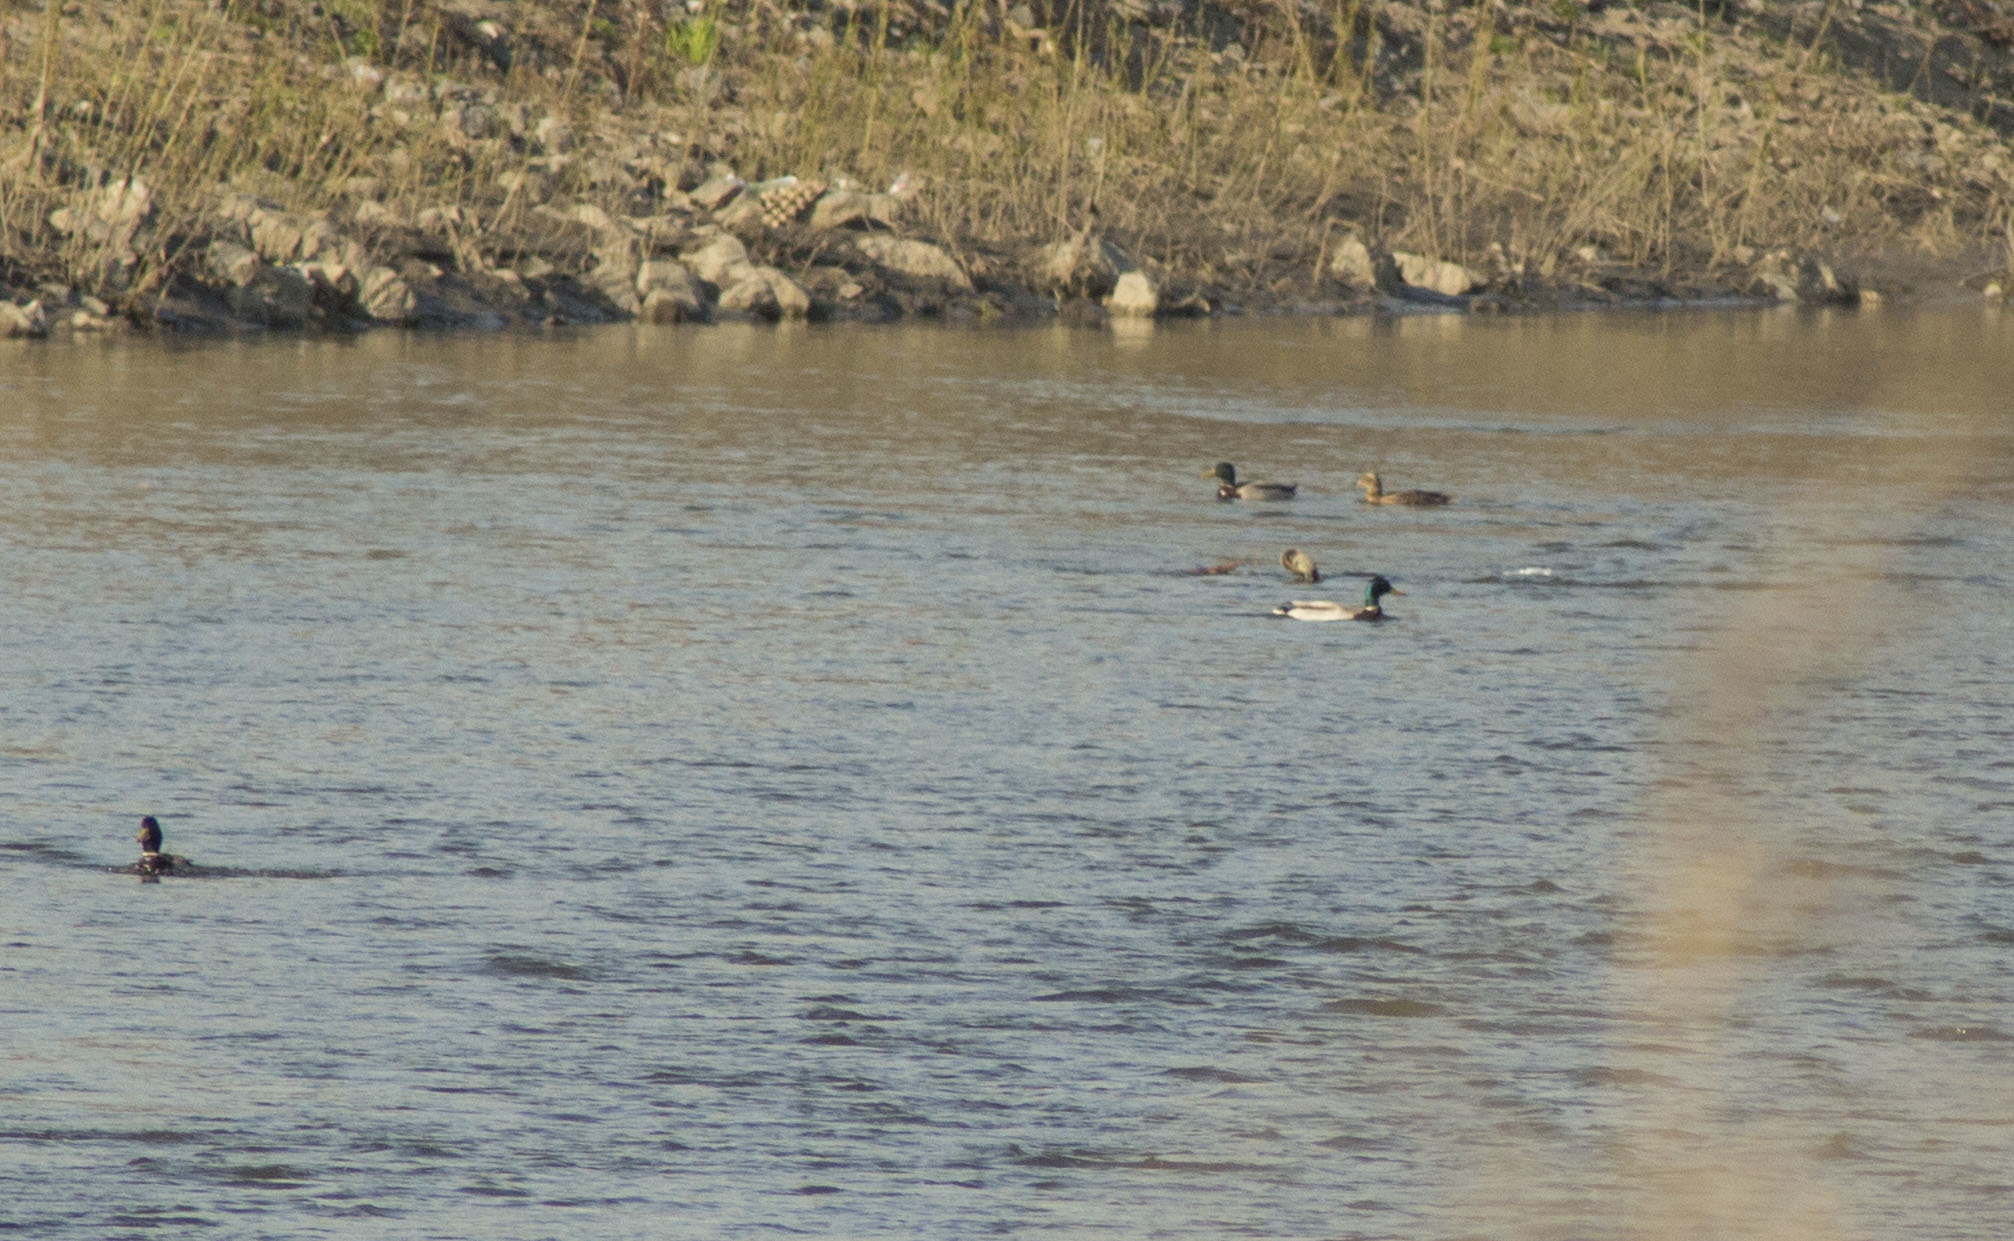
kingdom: Animalia
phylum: Chordata
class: Aves
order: Anseriformes
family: Anatidae
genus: Anas
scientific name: Anas platyrhynchos
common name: Mallard
